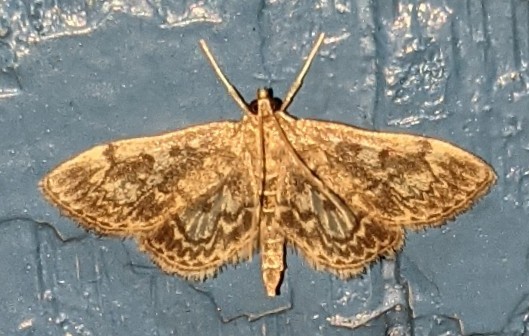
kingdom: Animalia
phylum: Arthropoda
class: Insecta
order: Lepidoptera
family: Crambidae
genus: Anania
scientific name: Anania
